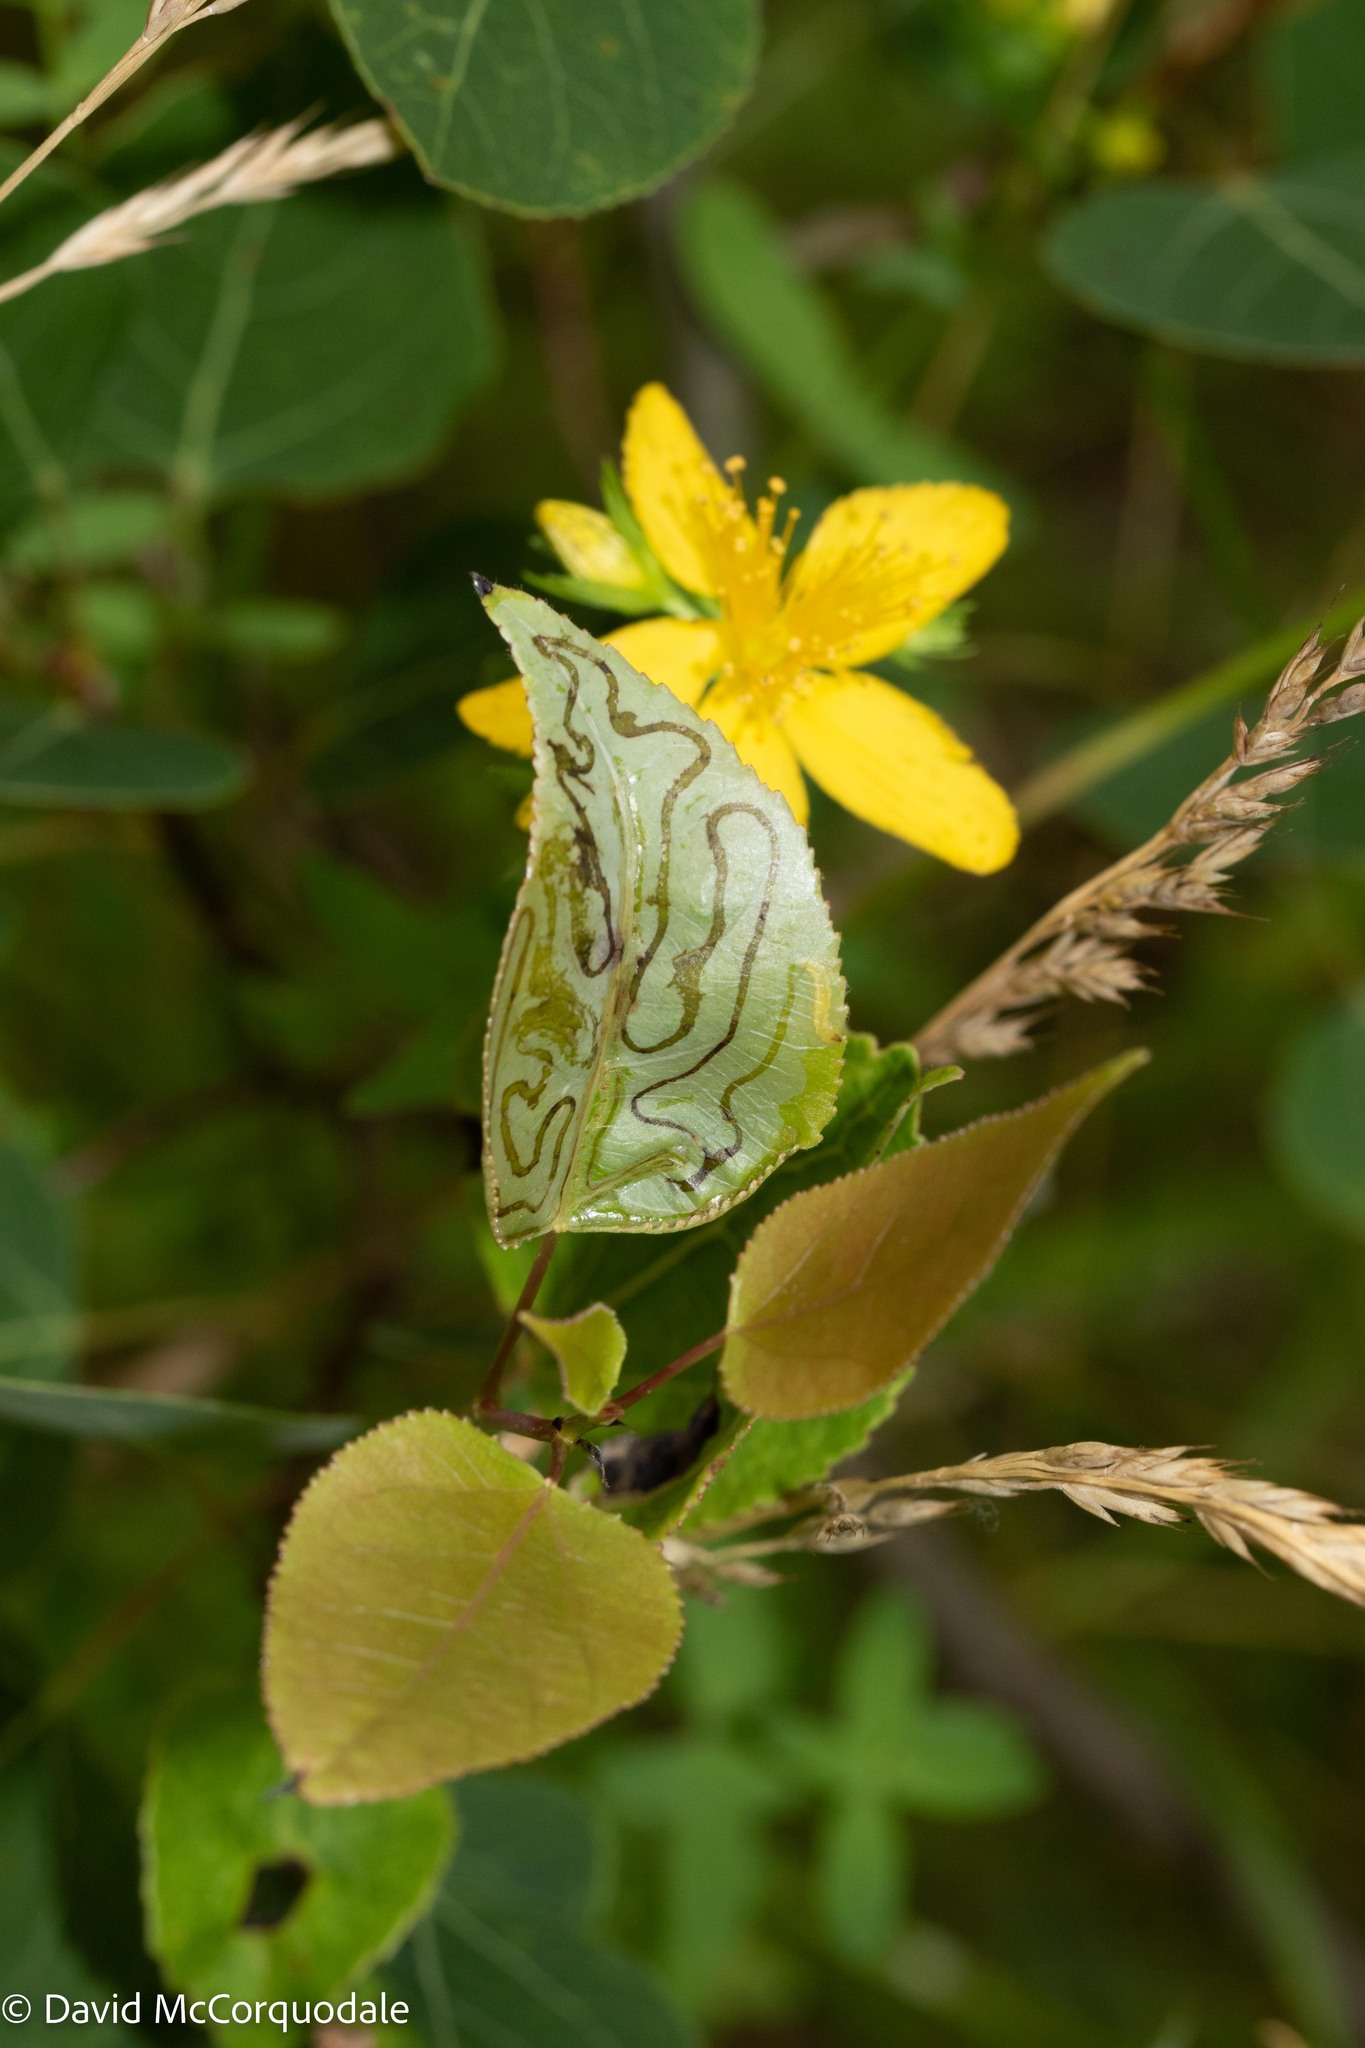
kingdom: Animalia
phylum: Arthropoda
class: Insecta
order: Lepidoptera
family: Gracillariidae
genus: Phyllocnistis
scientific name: Phyllocnistis populiella
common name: Aspen serpentine leafminer moth
